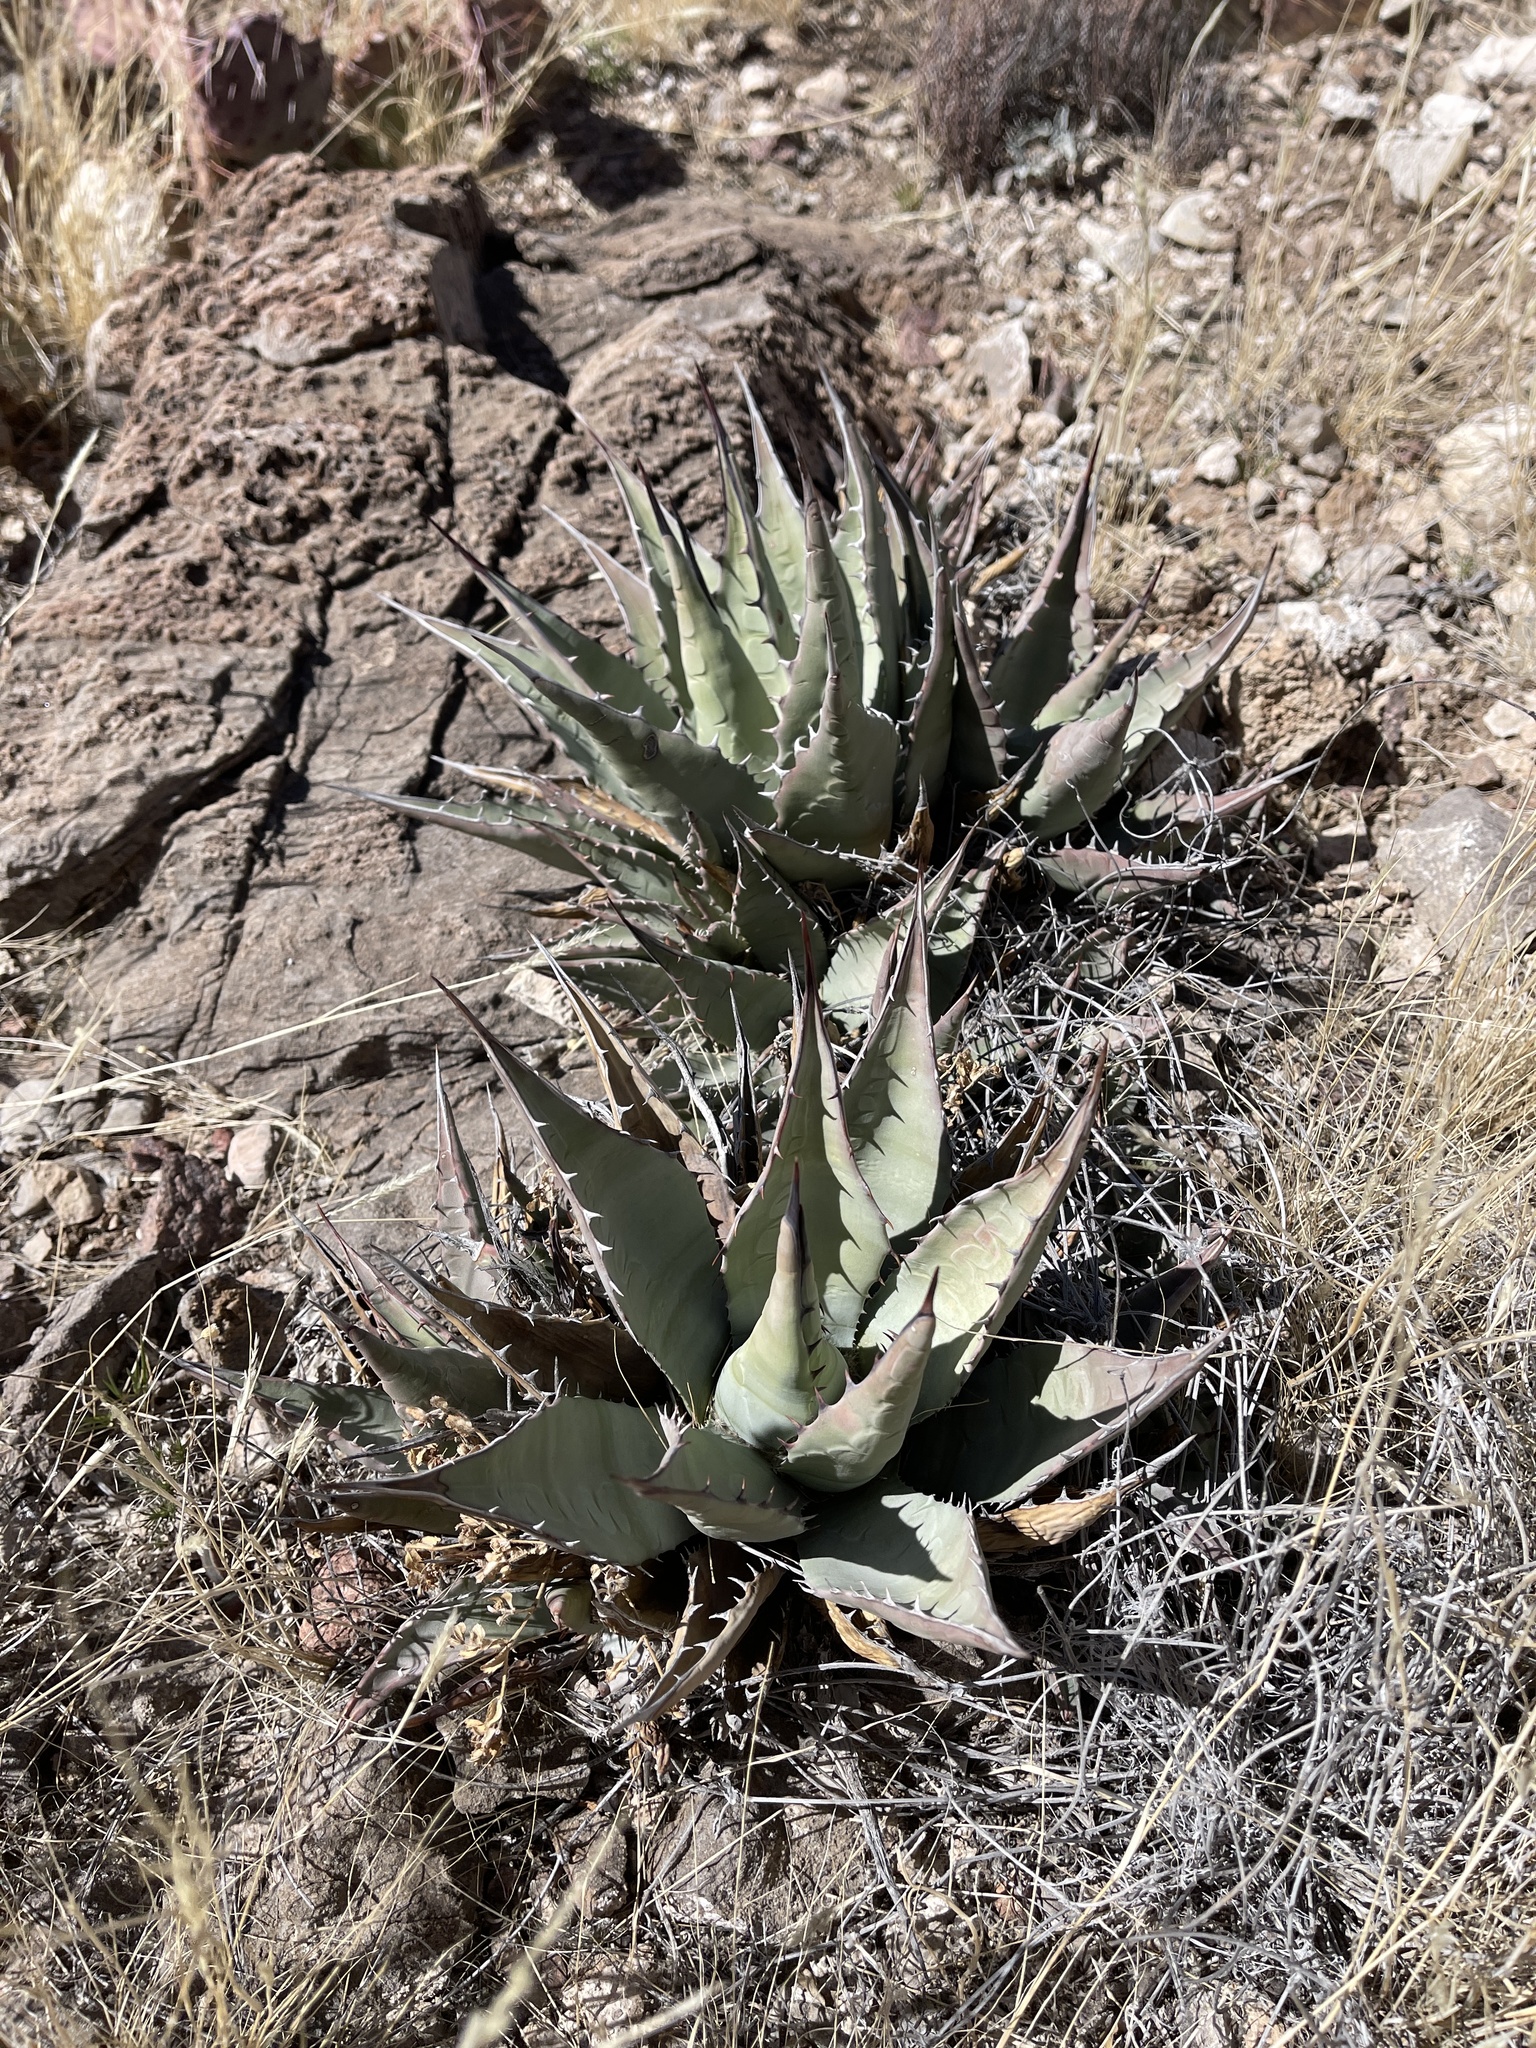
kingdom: Plantae
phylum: Tracheophyta
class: Liliopsida
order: Asparagales
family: Asparagaceae
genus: Agave
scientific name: Agave parryi
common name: Parry's agave
